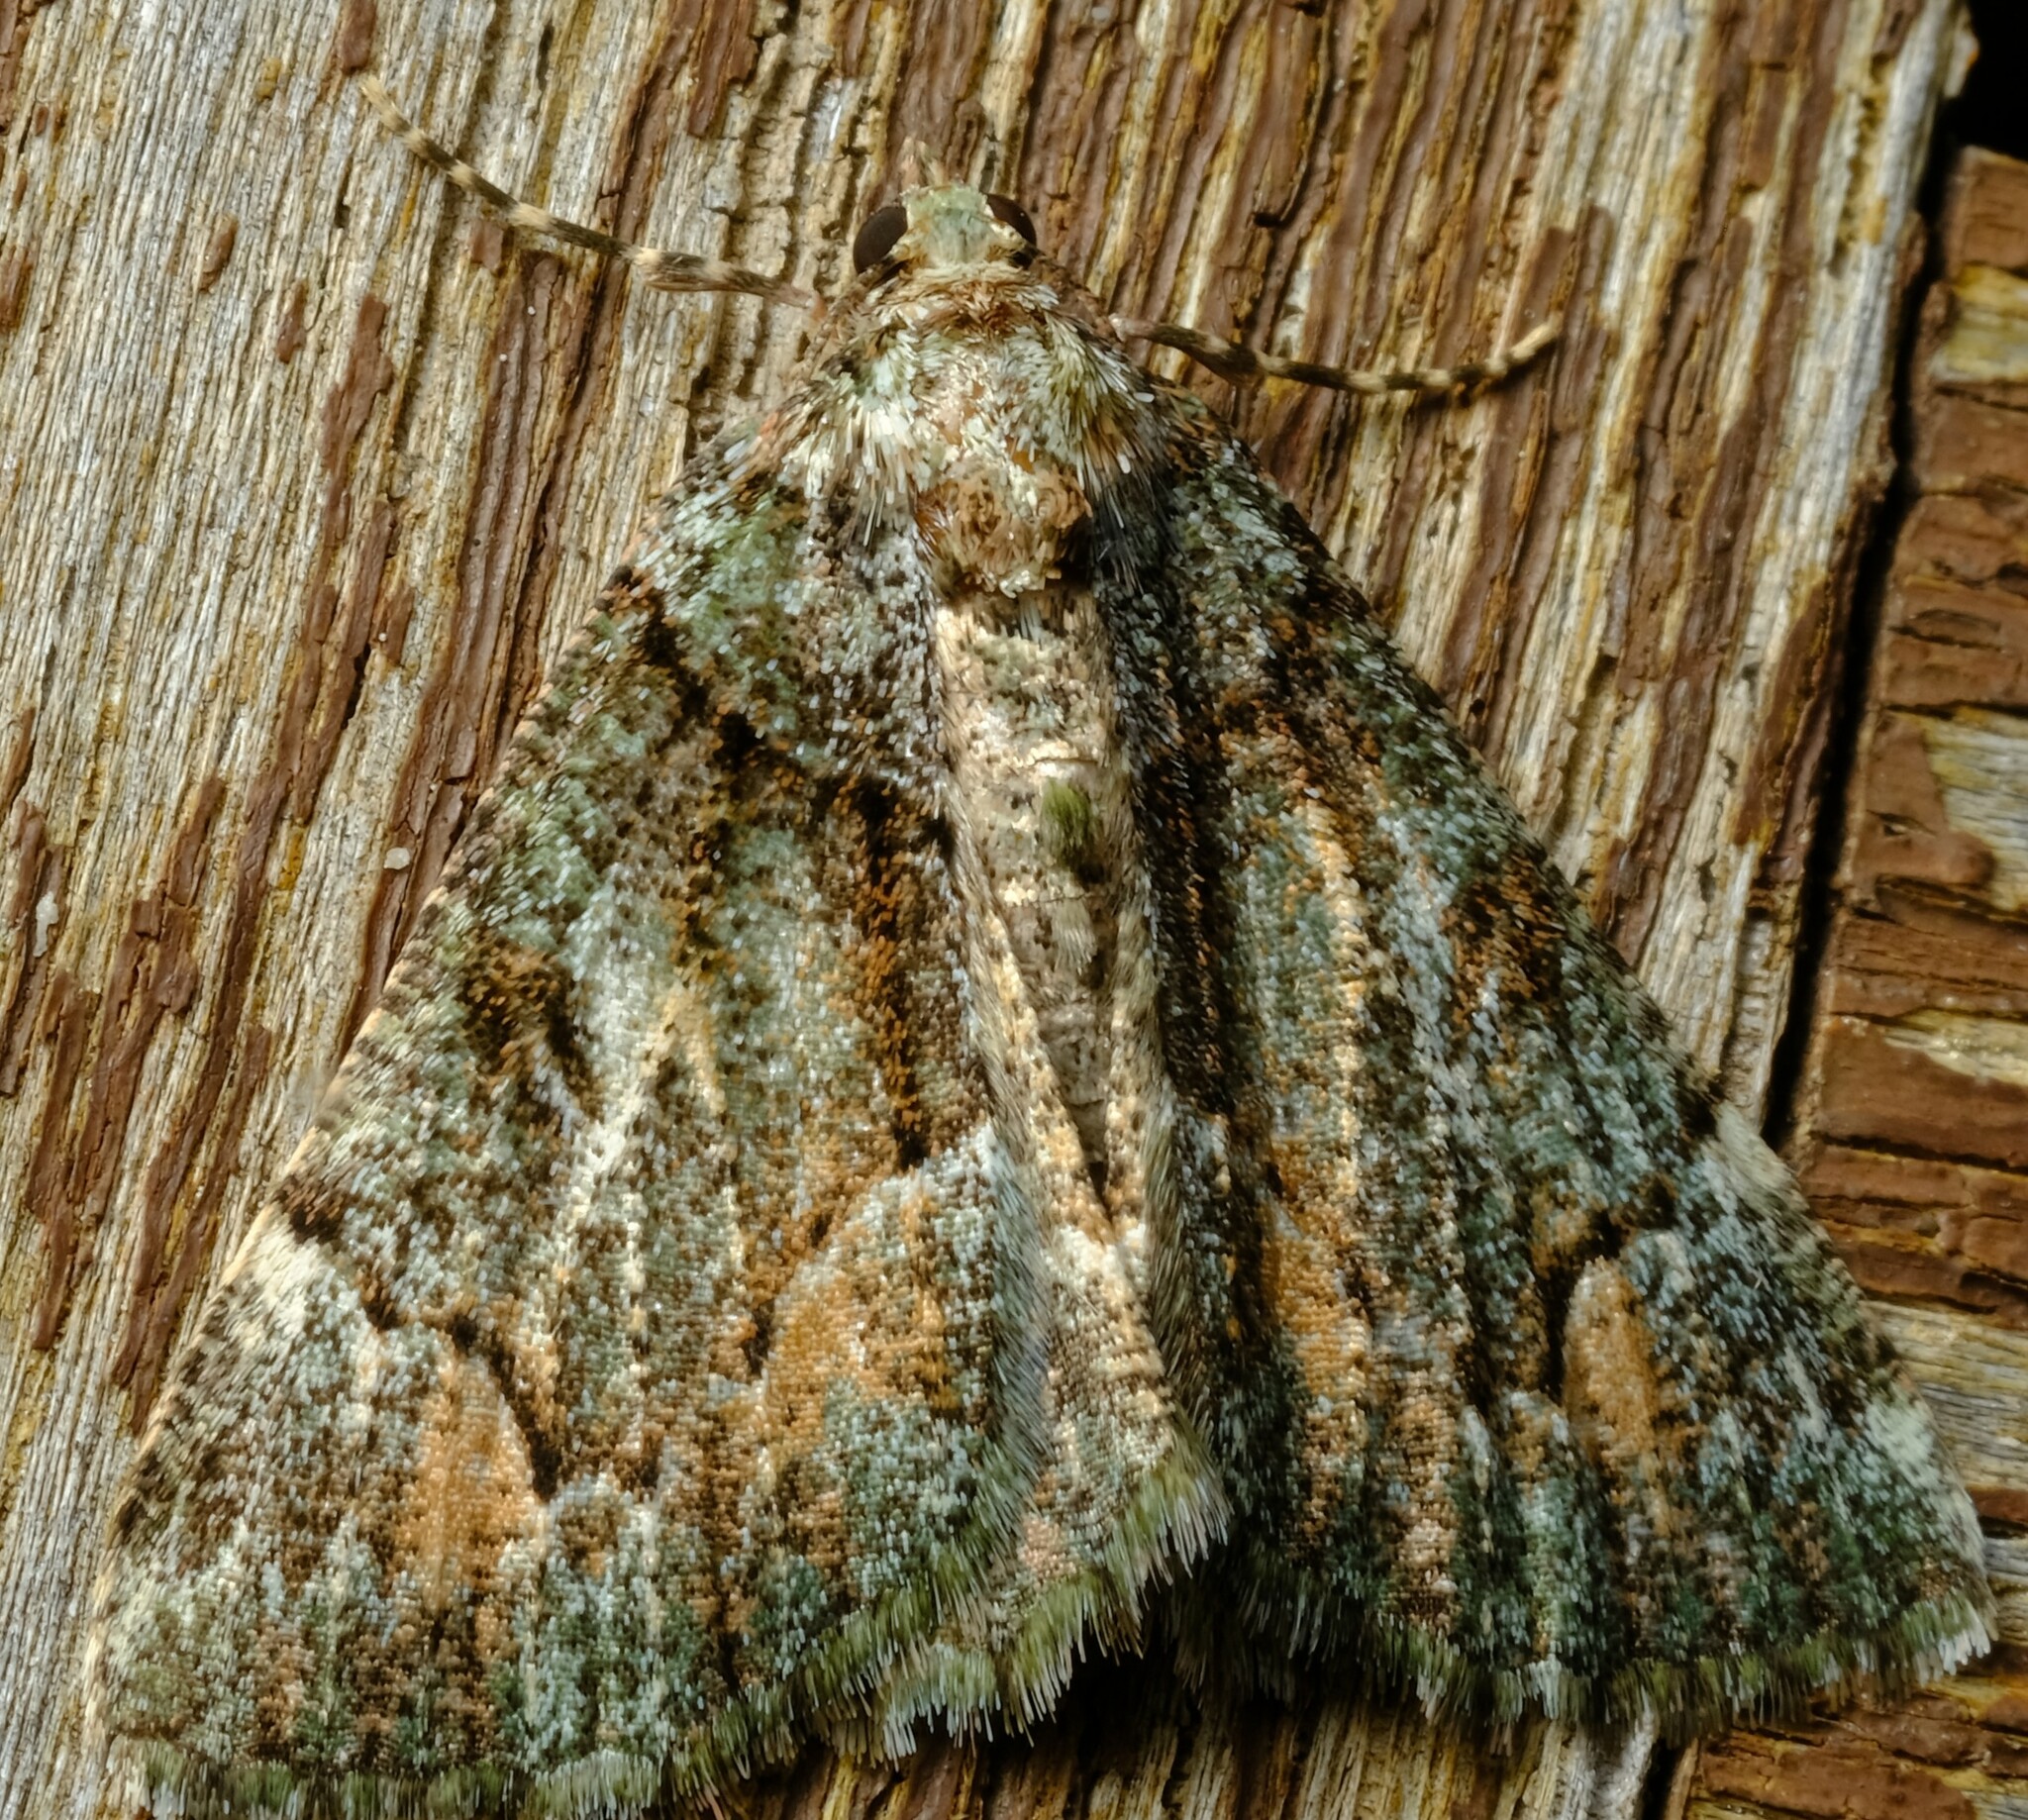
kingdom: Animalia
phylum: Arthropoda
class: Insecta
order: Lepidoptera
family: Geometridae
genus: Aeolochroma
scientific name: Aeolochroma metarhodata
